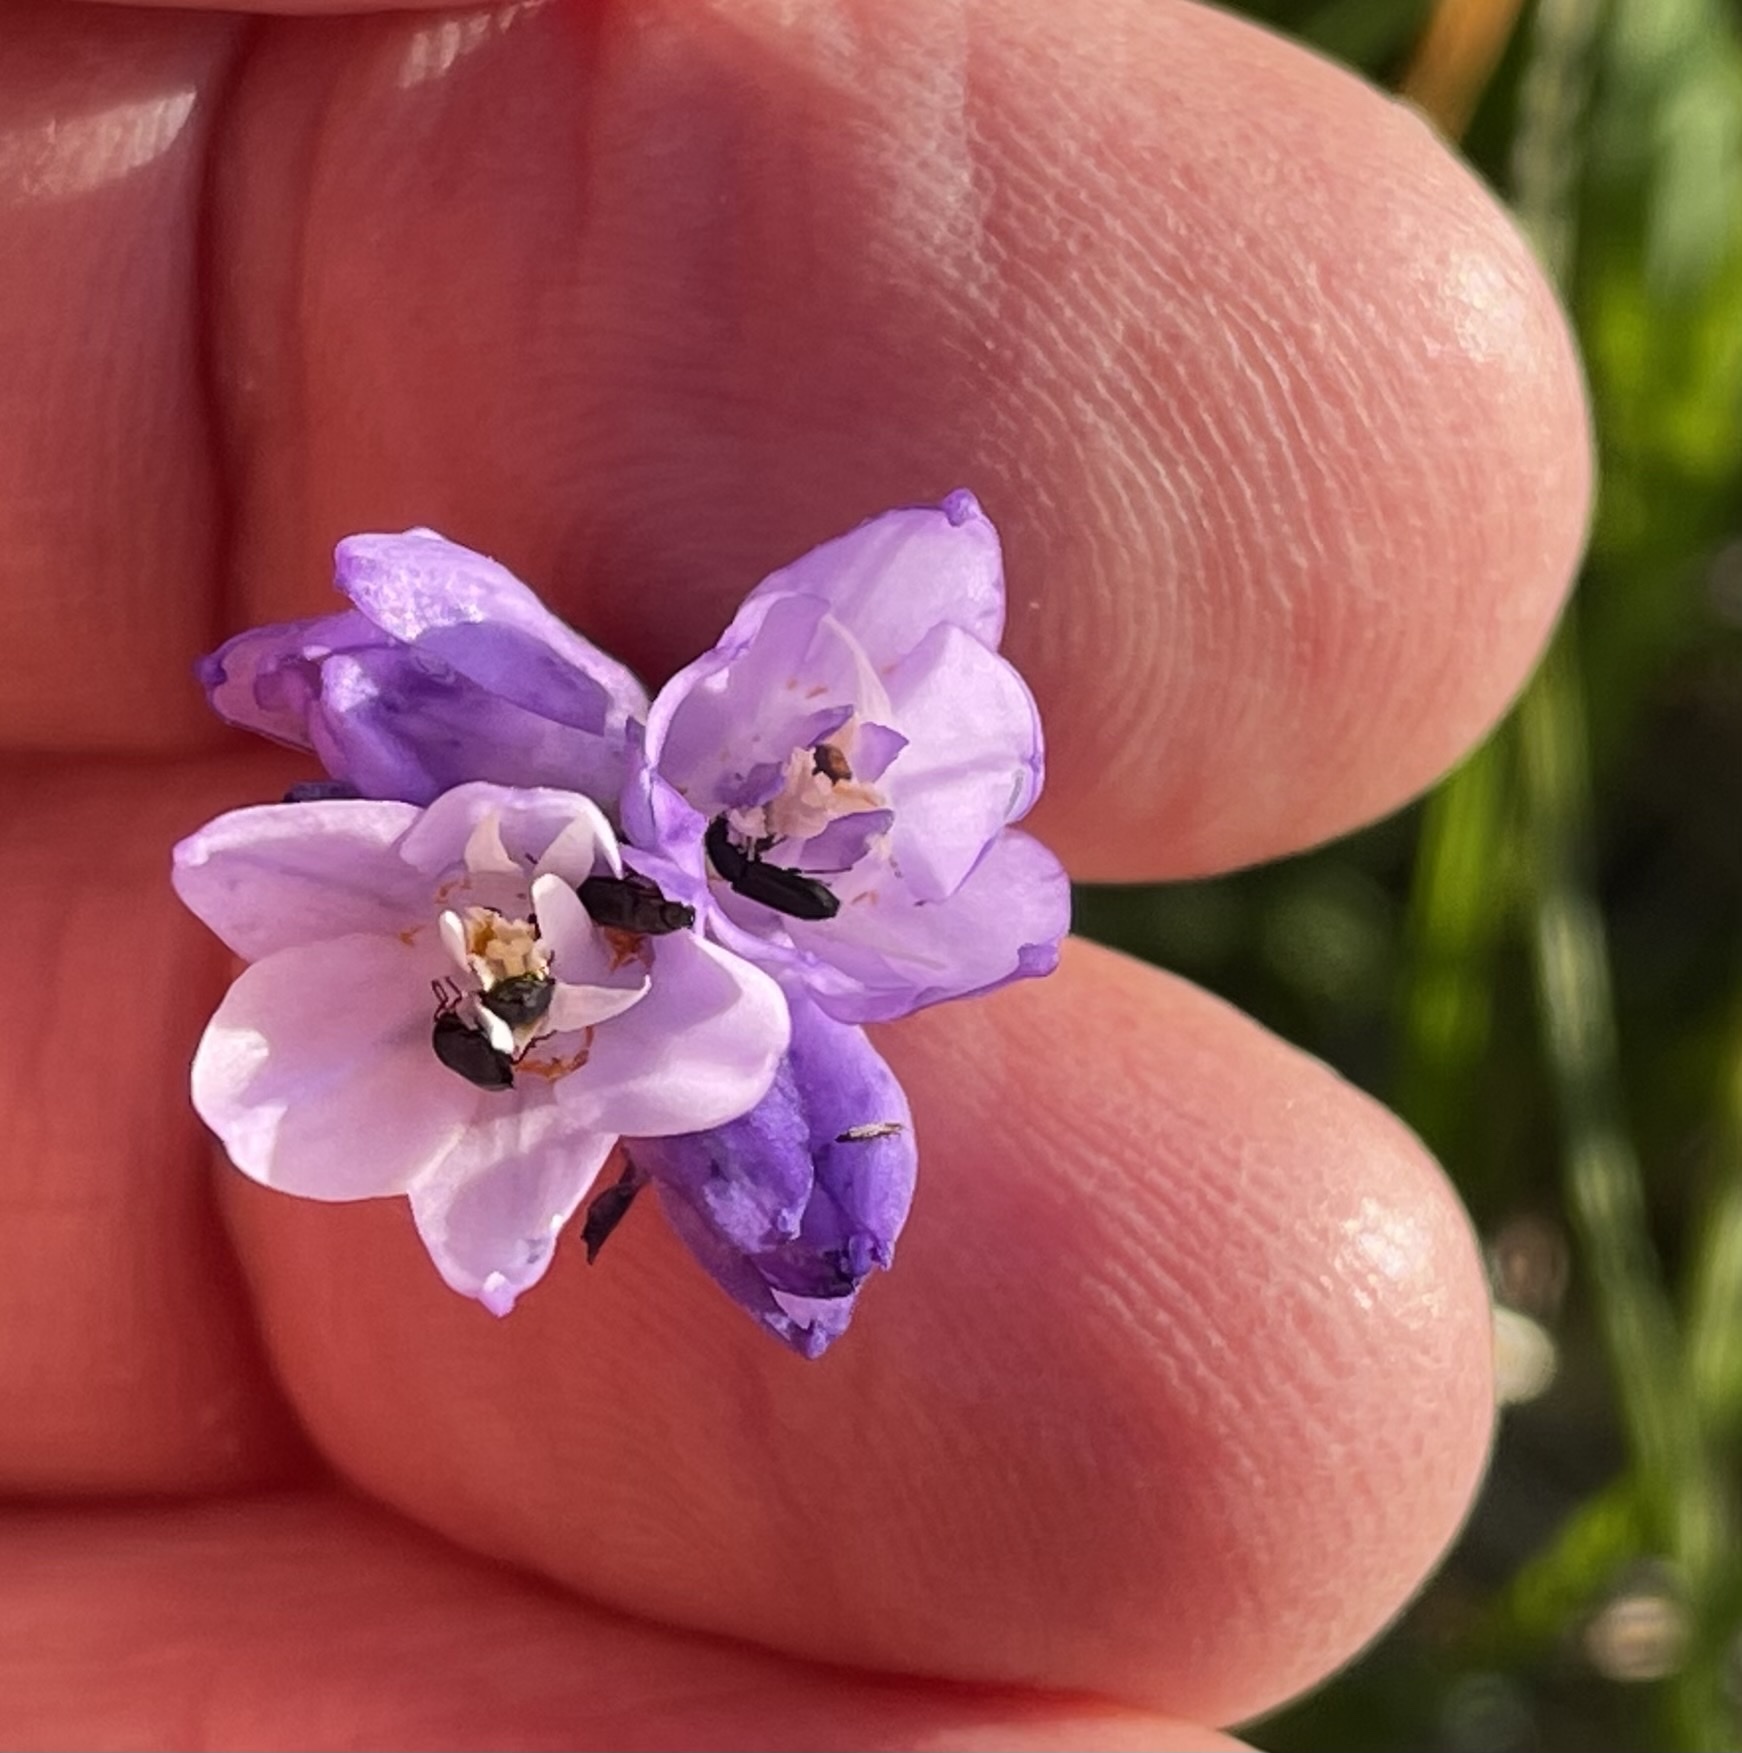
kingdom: Plantae
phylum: Tracheophyta
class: Liliopsida
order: Asparagales
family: Asparagaceae
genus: Dipterostemon
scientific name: Dipterostemon capitatus
